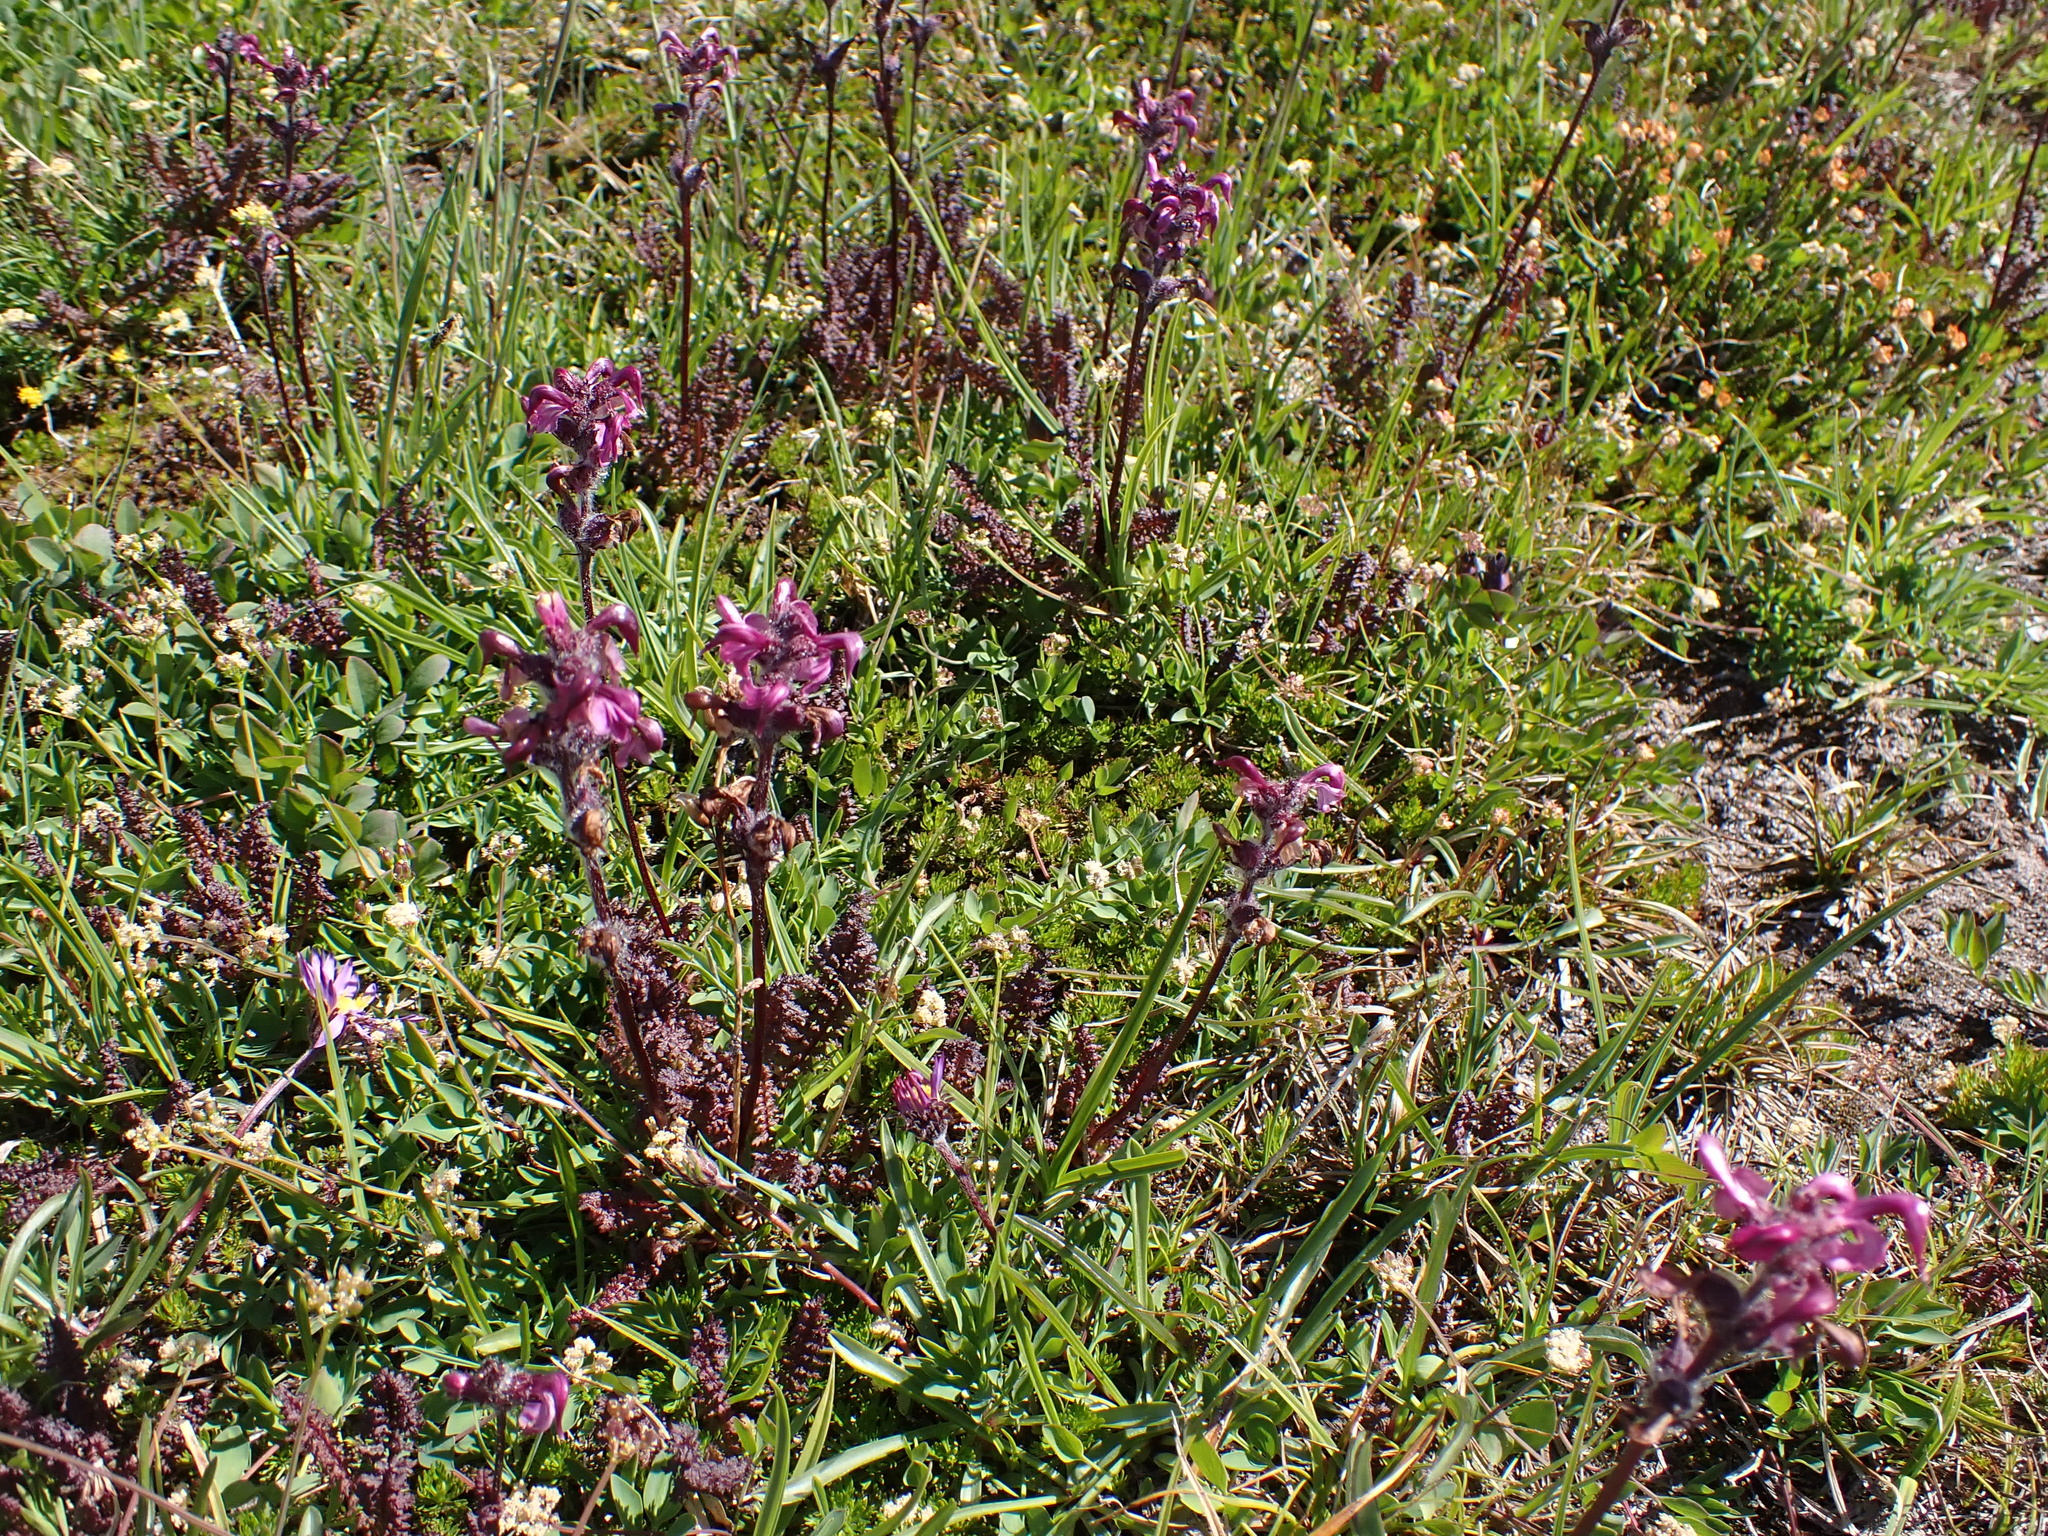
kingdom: Plantae
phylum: Tracheophyta
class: Magnoliopsida
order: Lamiales
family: Orobanchaceae
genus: Pedicularis
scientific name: Pedicularis ornithorhynchos
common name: Bird's-beak lousewort
